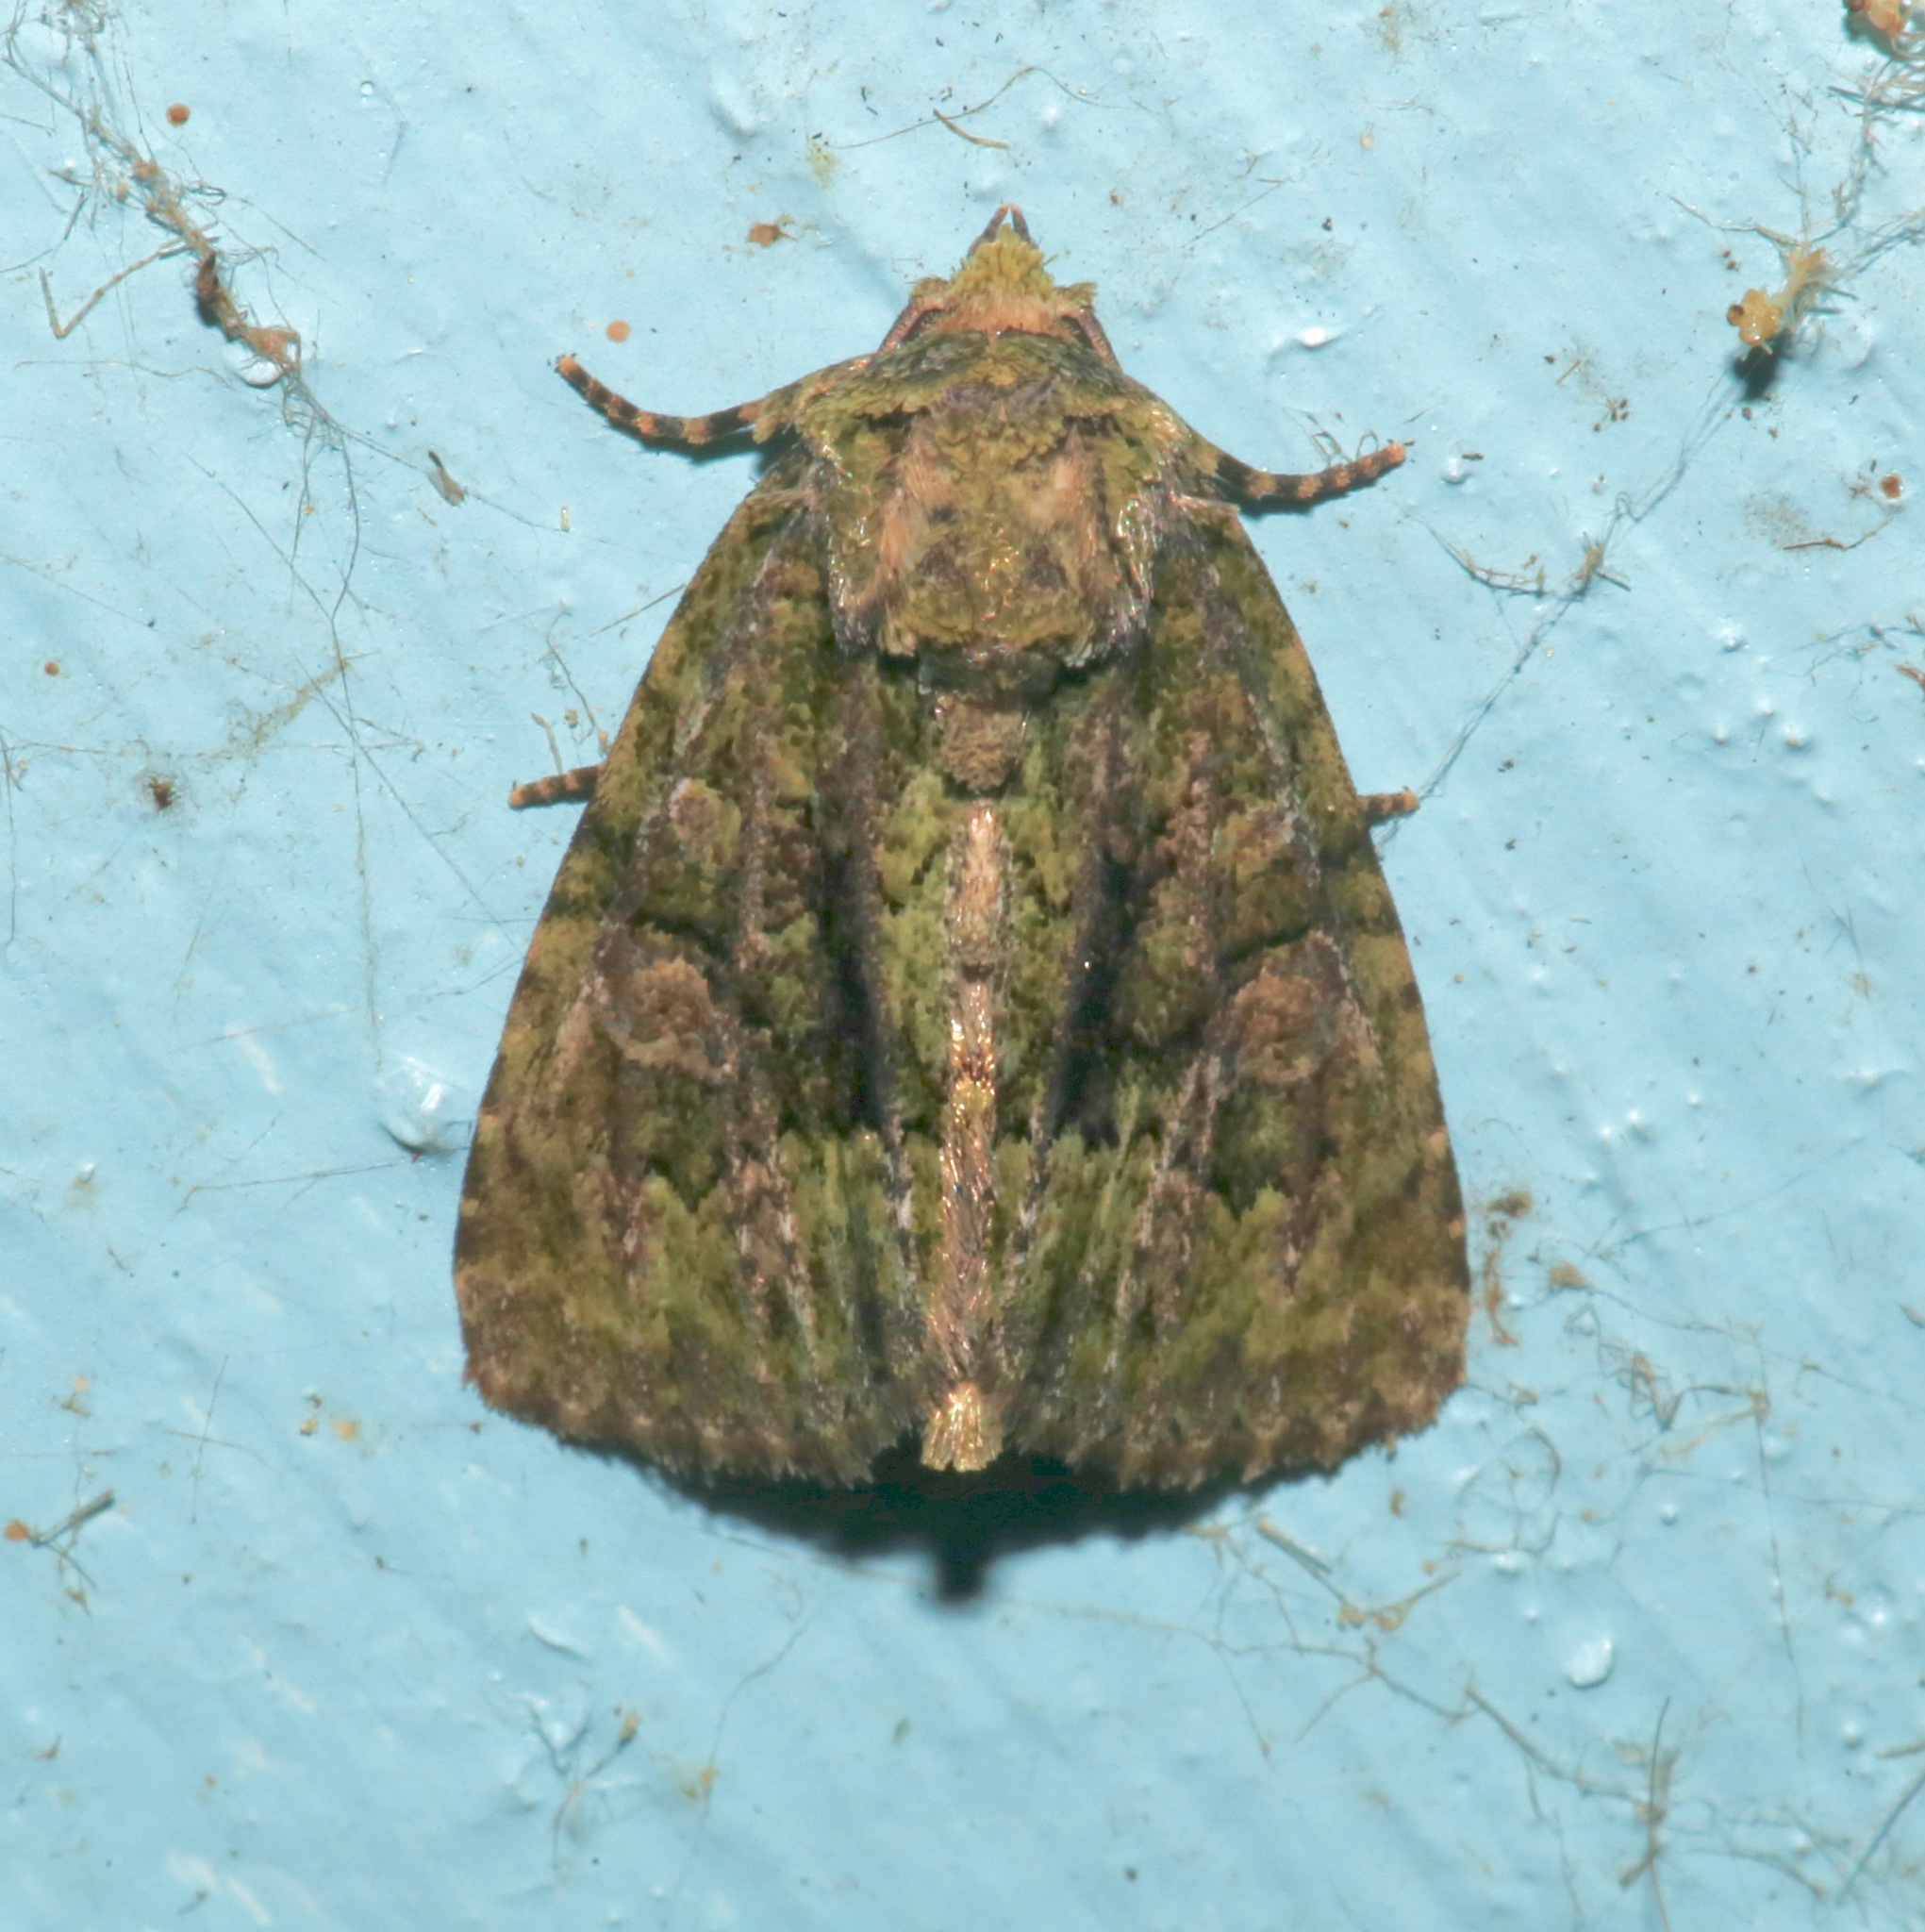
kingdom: Animalia
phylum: Arthropoda
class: Insecta
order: Lepidoptera
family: Noctuidae
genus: Phosphila
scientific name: Phosphila miselioides
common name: Spotted phosphila moth
